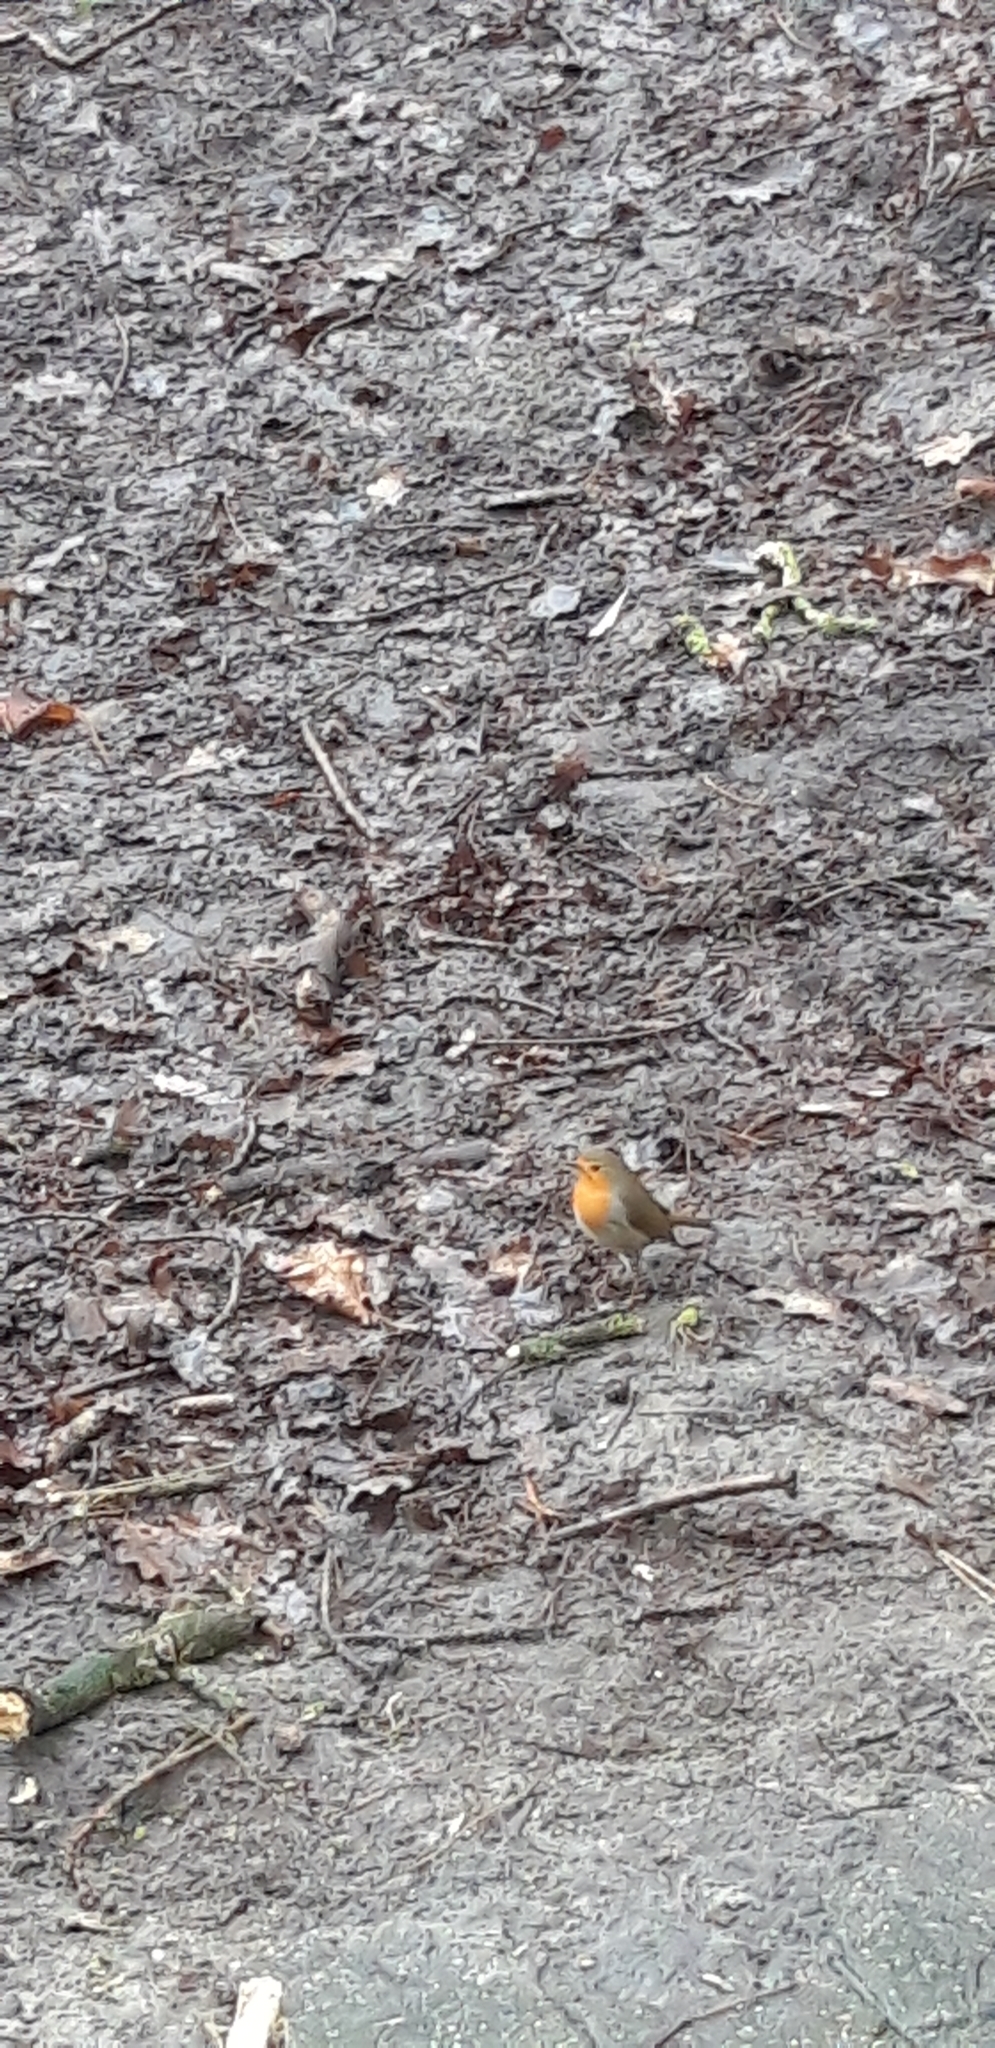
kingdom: Animalia
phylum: Chordata
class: Aves
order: Passeriformes
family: Muscicapidae
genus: Erithacus
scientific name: Erithacus rubecula
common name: European robin
